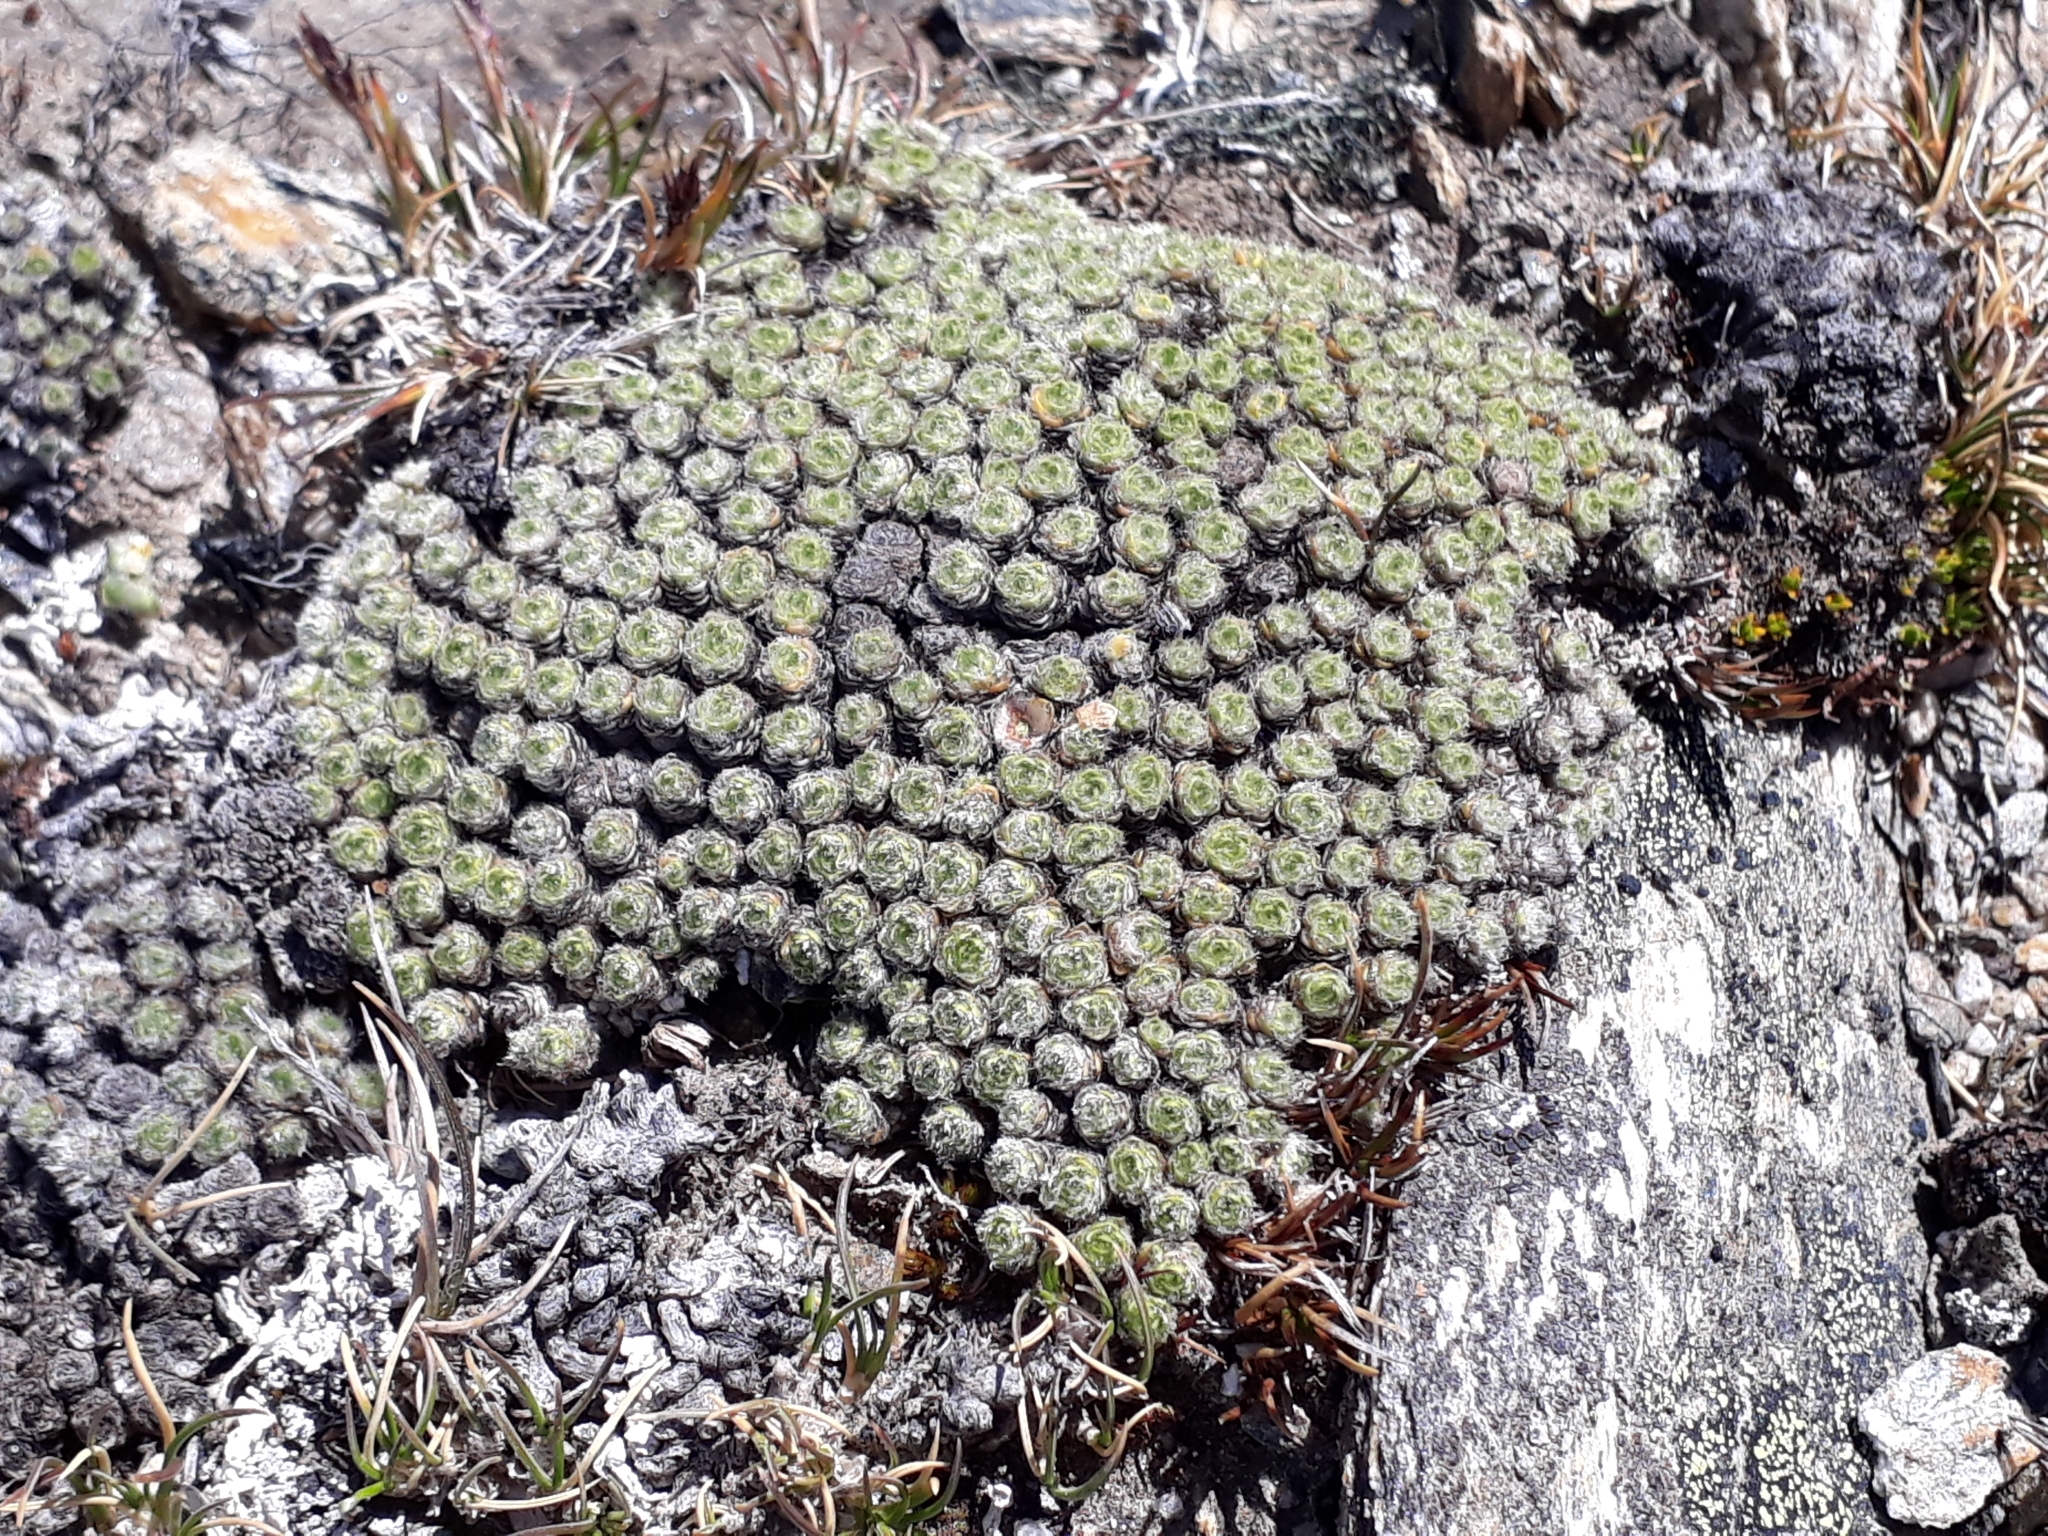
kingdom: Plantae
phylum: Tracheophyta
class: Magnoliopsida
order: Lamiales
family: Plantaginaceae
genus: Veronica
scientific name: Veronica thomsonii
